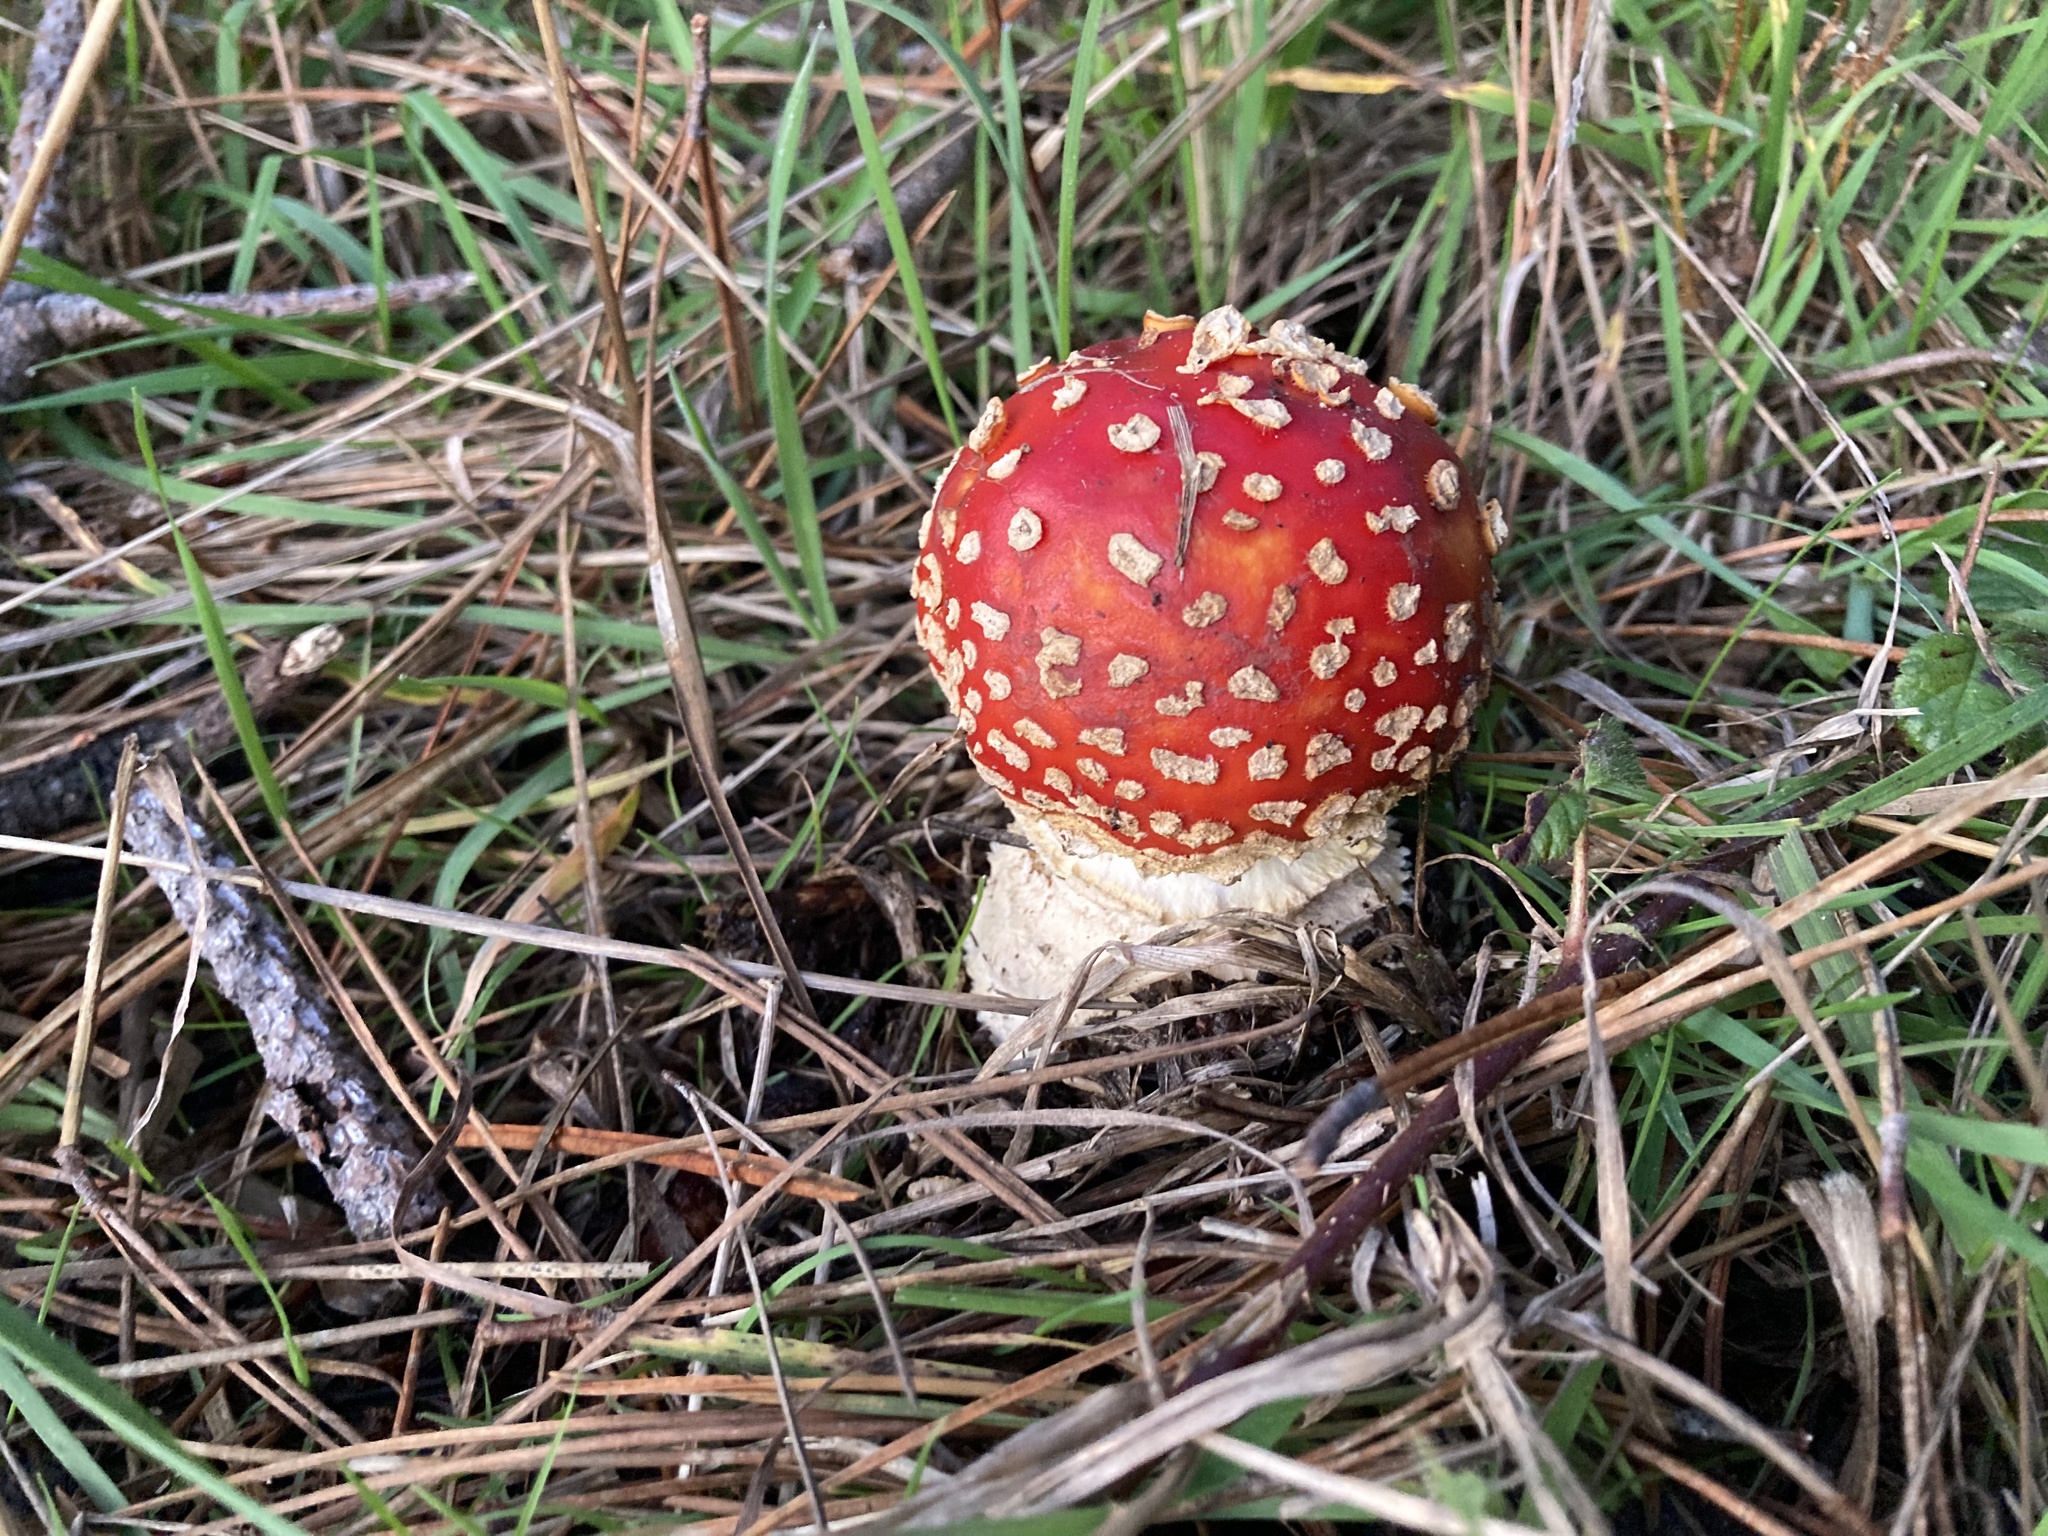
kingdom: Fungi
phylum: Basidiomycota
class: Agaricomycetes
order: Agaricales
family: Amanitaceae
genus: Amanita
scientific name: Amanita muscaria
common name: Fly agaric
